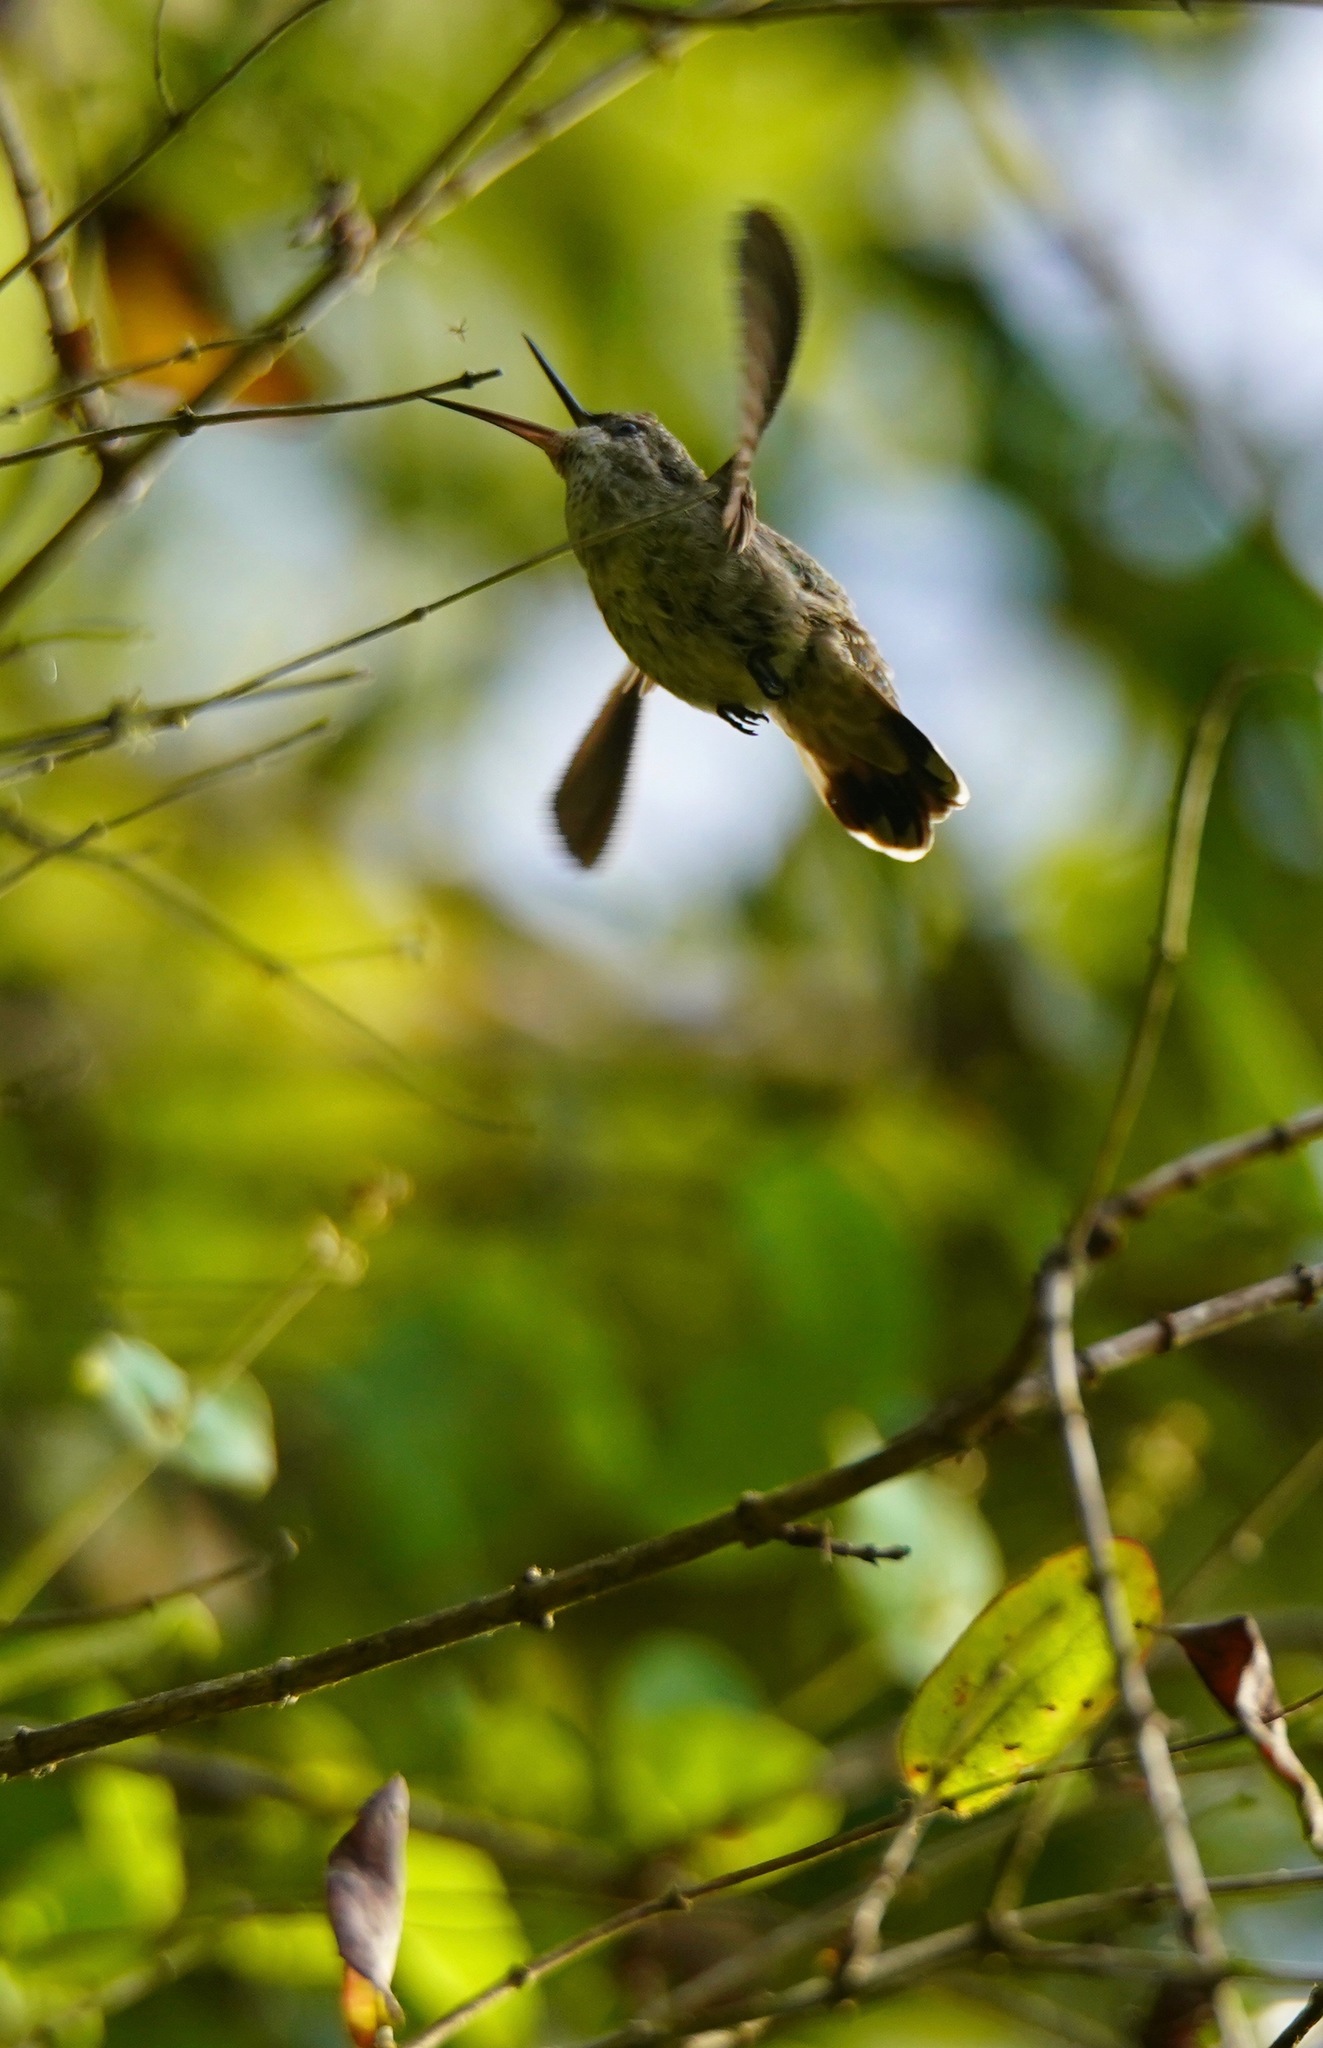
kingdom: Animalia
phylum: Chordata
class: Aves
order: Apodiformes
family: Trochilidae
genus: Calypte
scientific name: Calypte anna
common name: Anna's hummingbird
